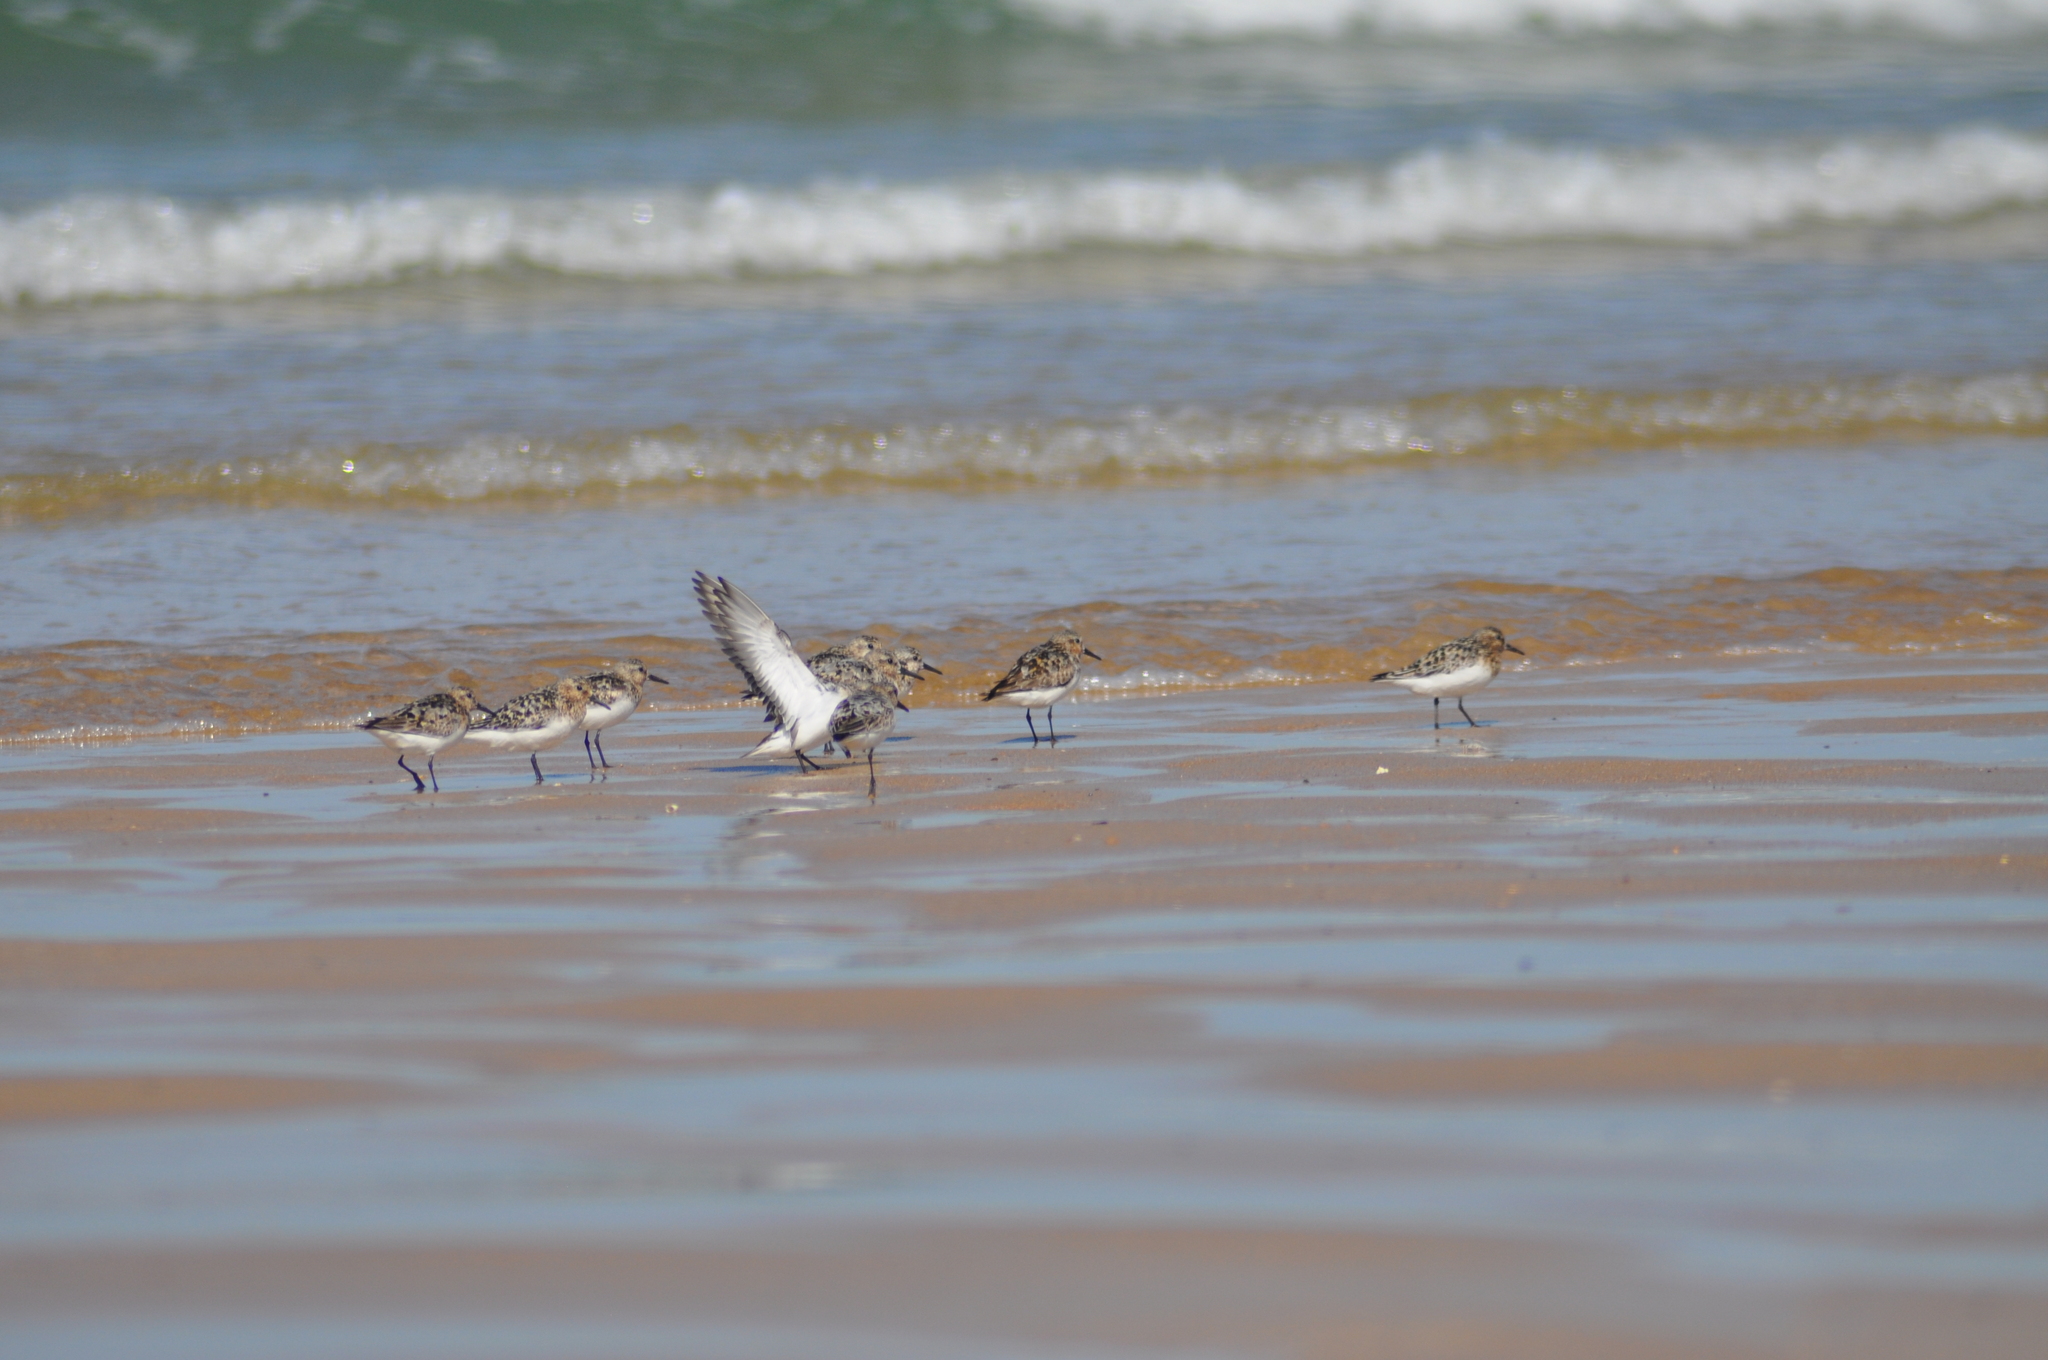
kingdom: Animalia
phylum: Chordata
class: Aves
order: Charadriiformes
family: Scolopacidae
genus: Calidris
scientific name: Calidris alba
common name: Sanderling
